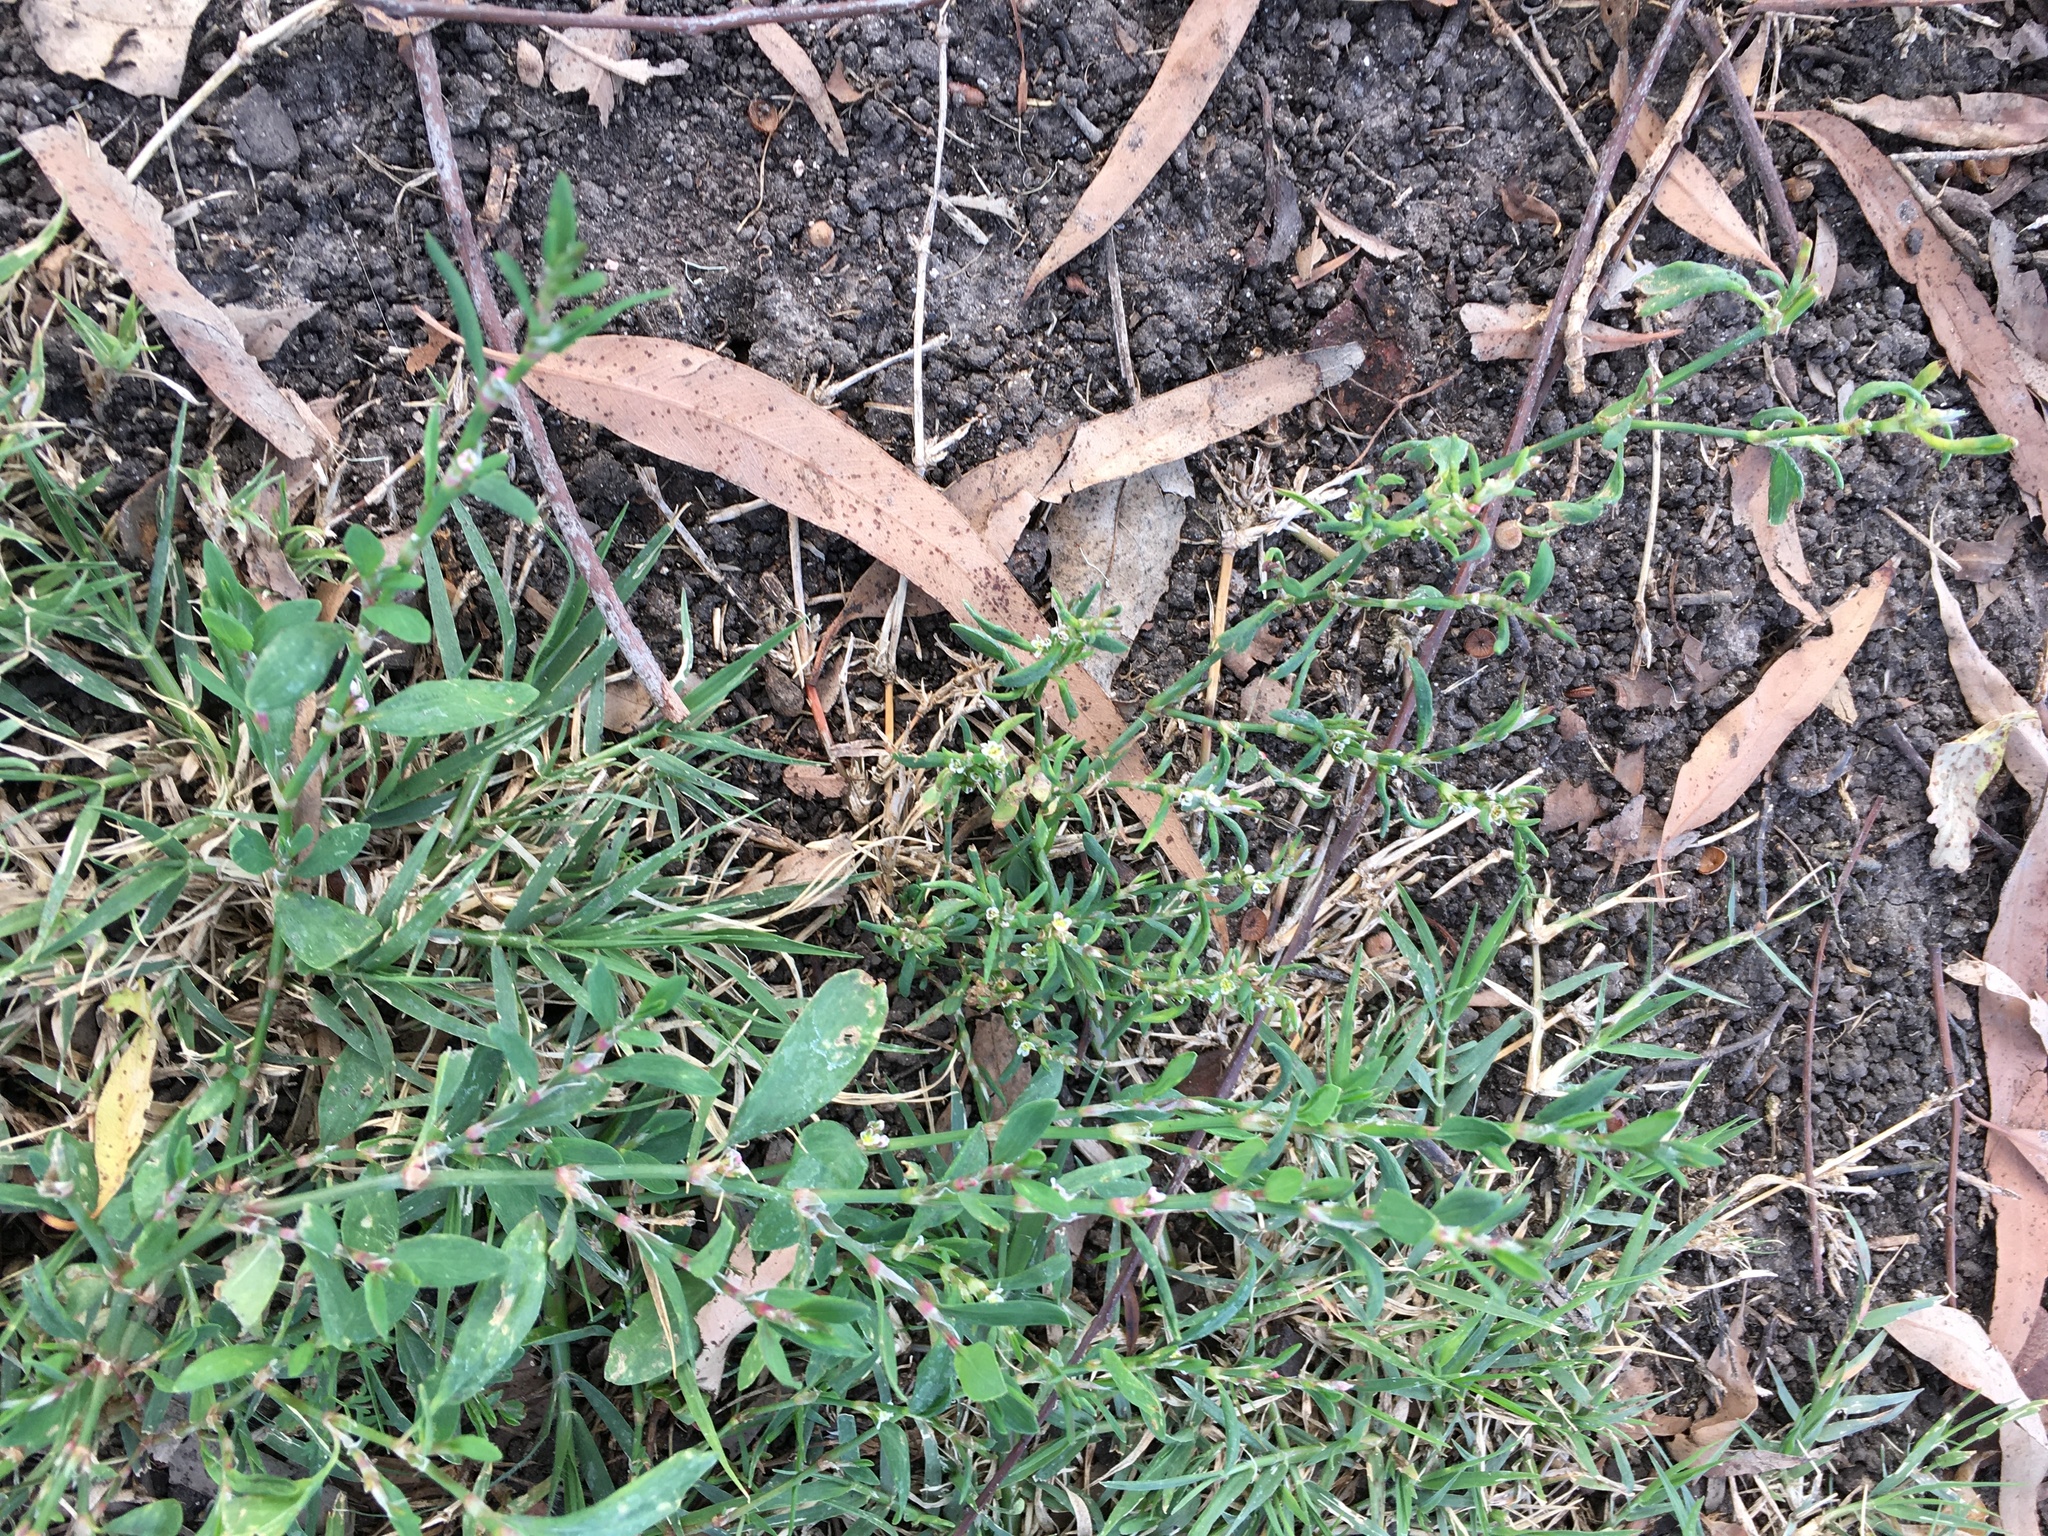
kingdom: Plantae
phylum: Tracheophyta
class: Magnoliopsida
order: Caryophyllales
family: Polygonaceae
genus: Polygonum
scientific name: Polygonum aviculare
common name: Prostrate knotweed
